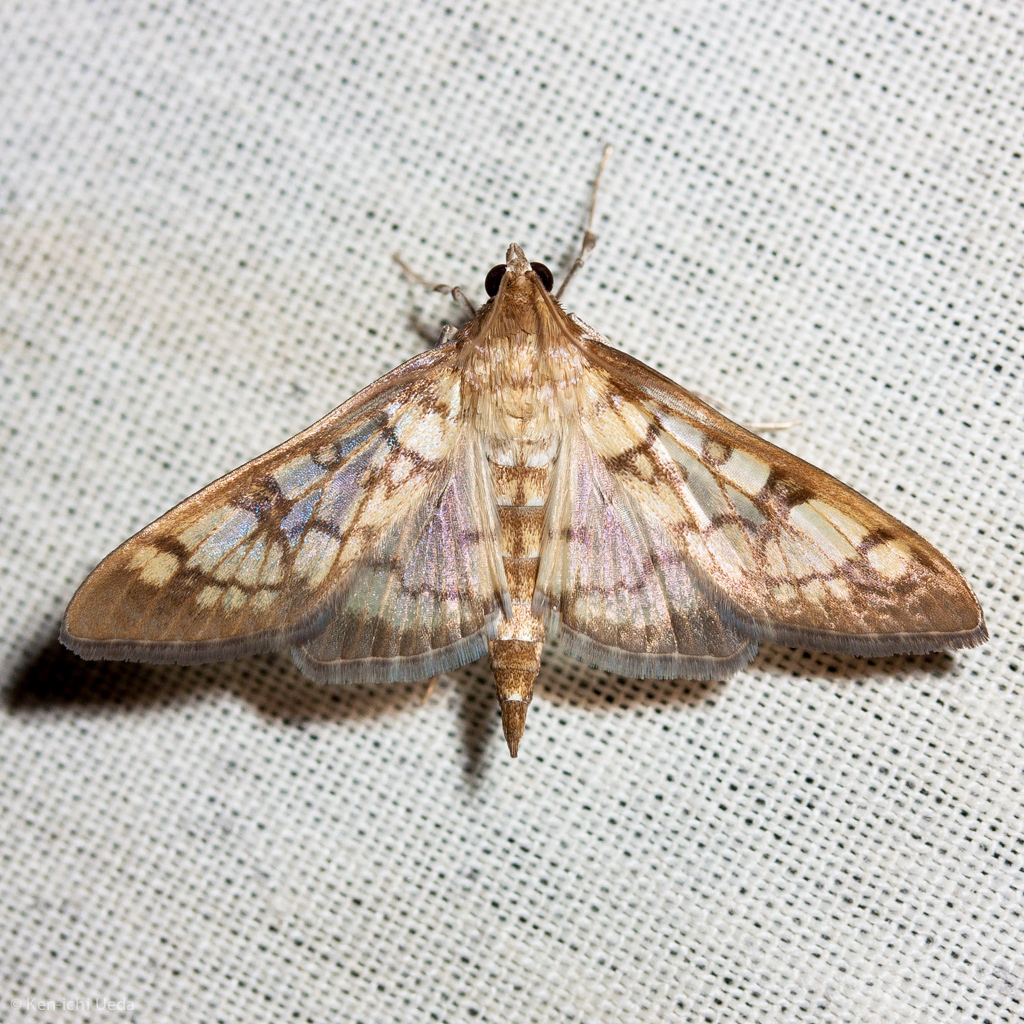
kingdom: Animalia
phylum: Arthropoda
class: Insecta
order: Lepidoptera
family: Crambidae
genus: Mimorista
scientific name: Mimorista subcostalis
